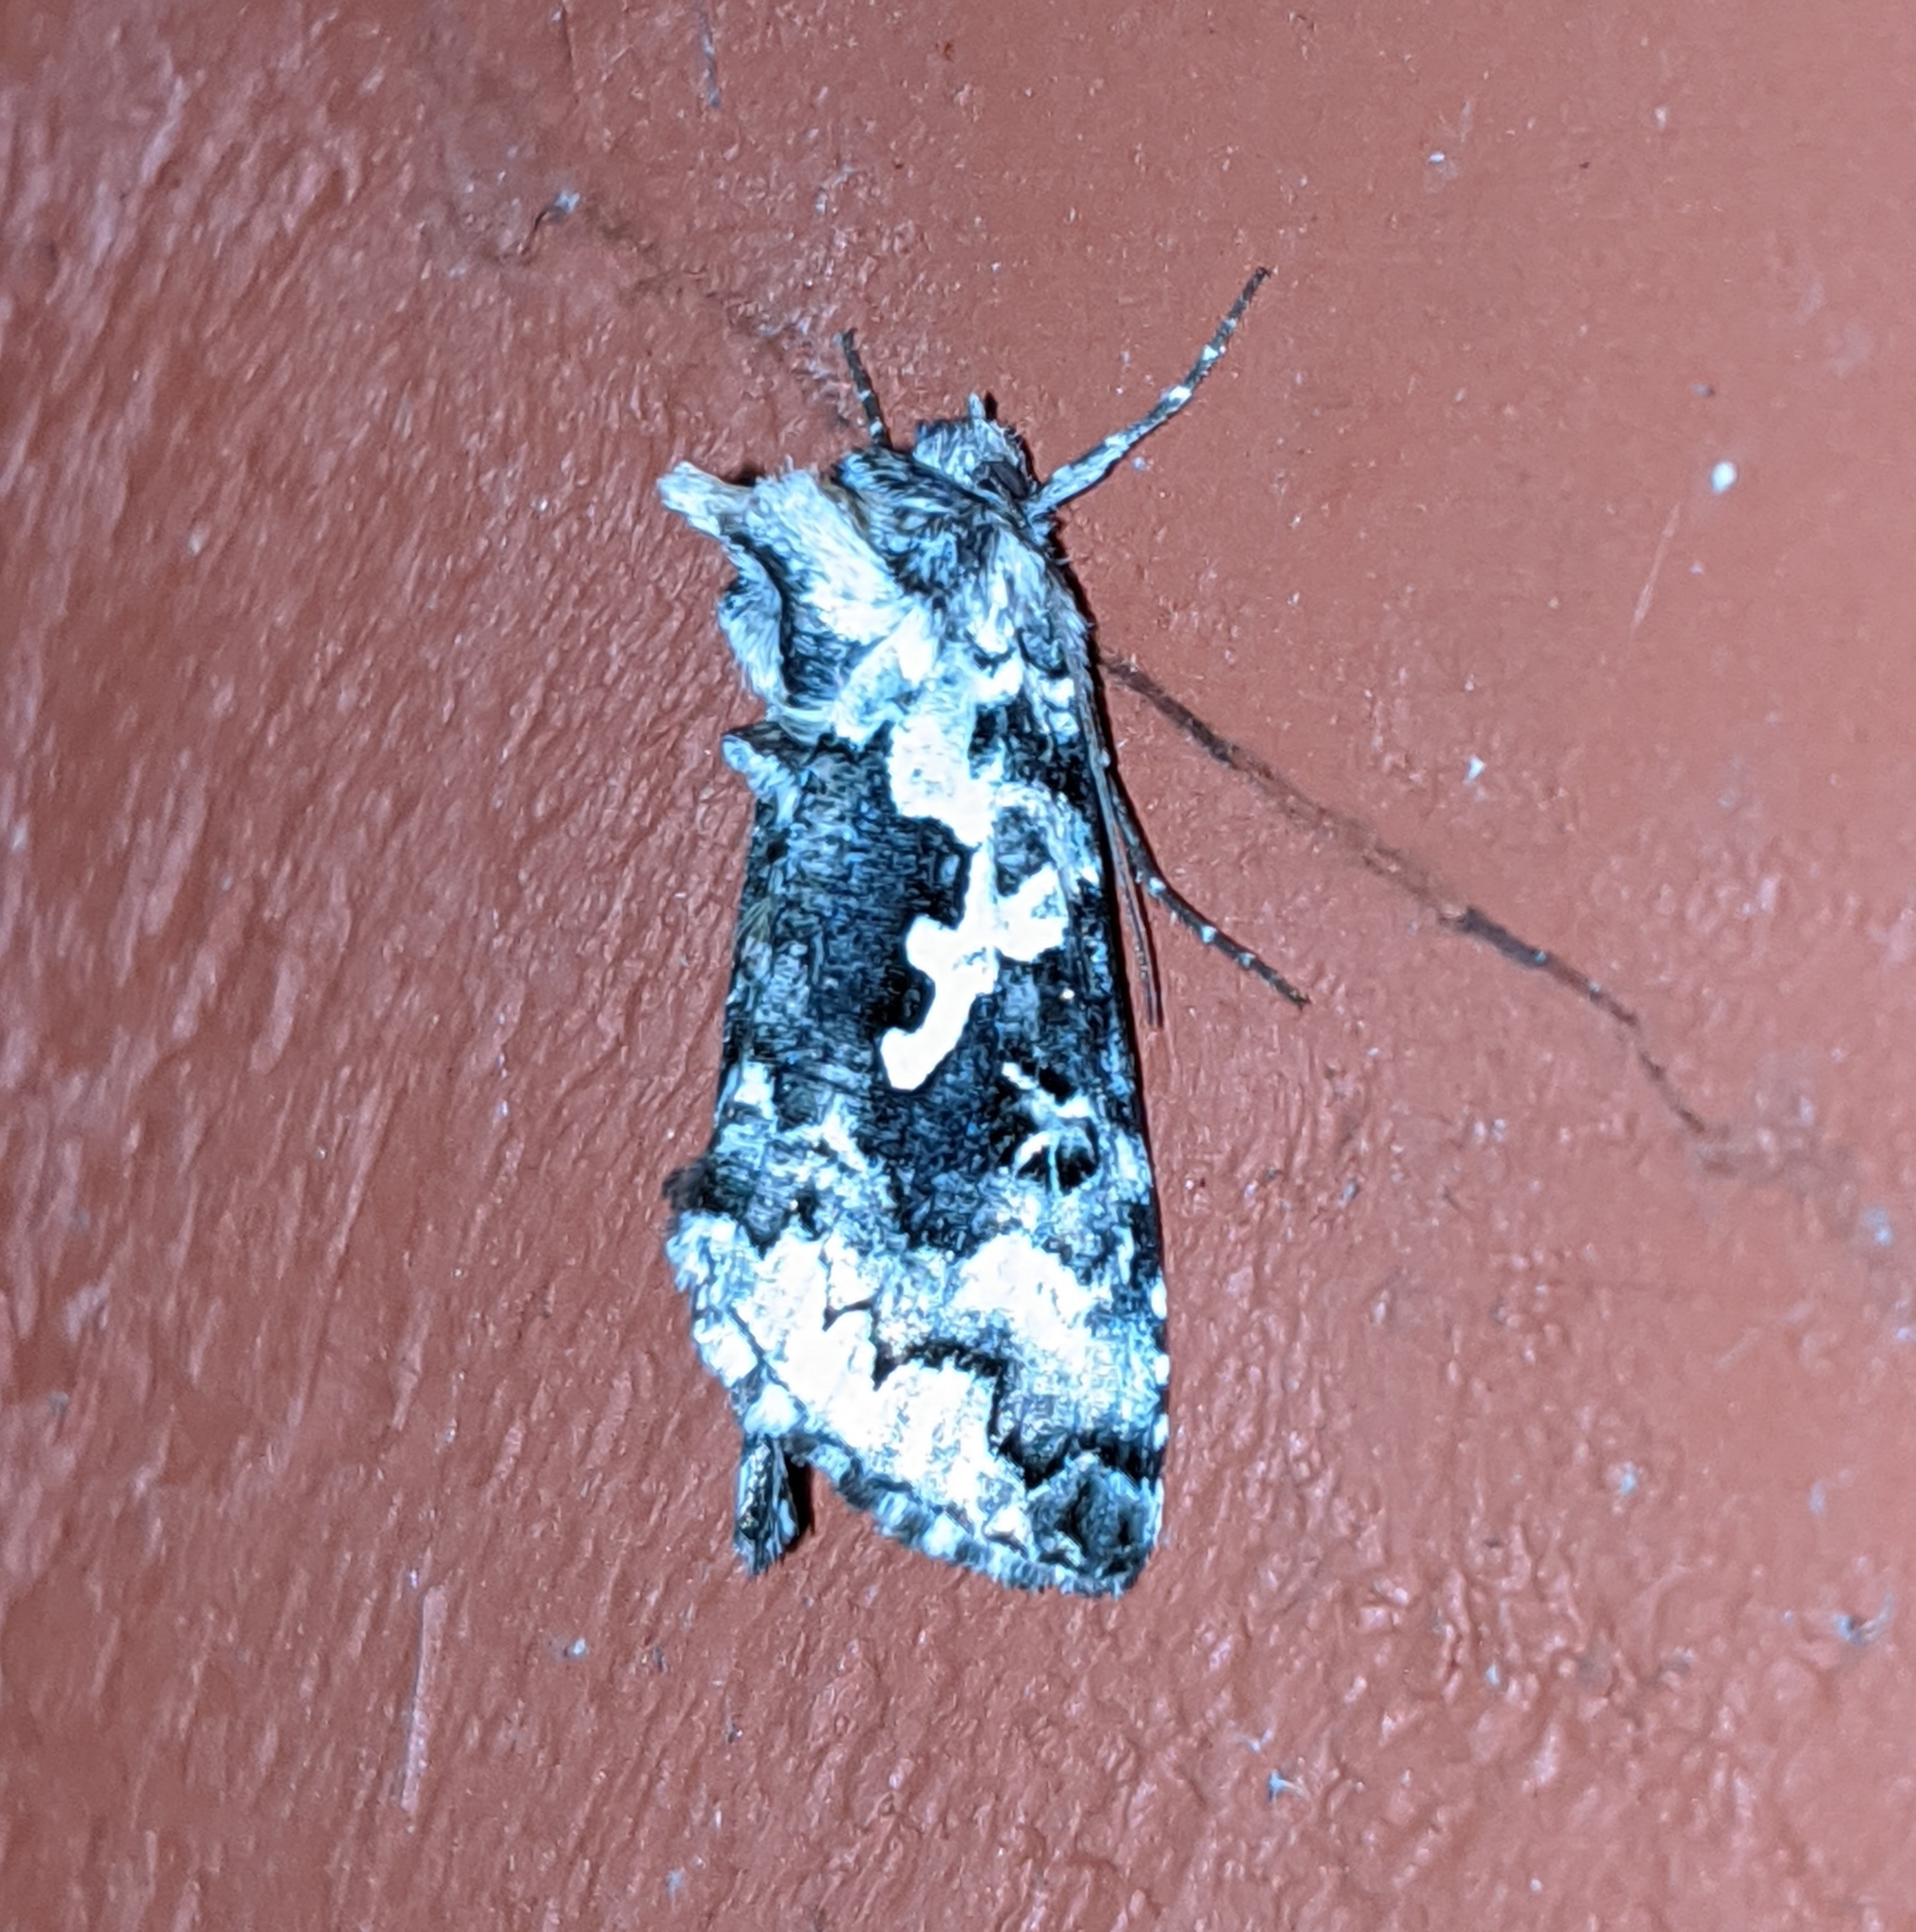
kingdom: Animalia
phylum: Arthropoda
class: Insecta
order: Lepidoptera
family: Noctuidae
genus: Syngrapha
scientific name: Syngrapha rectangula
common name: Angulated cutworm
